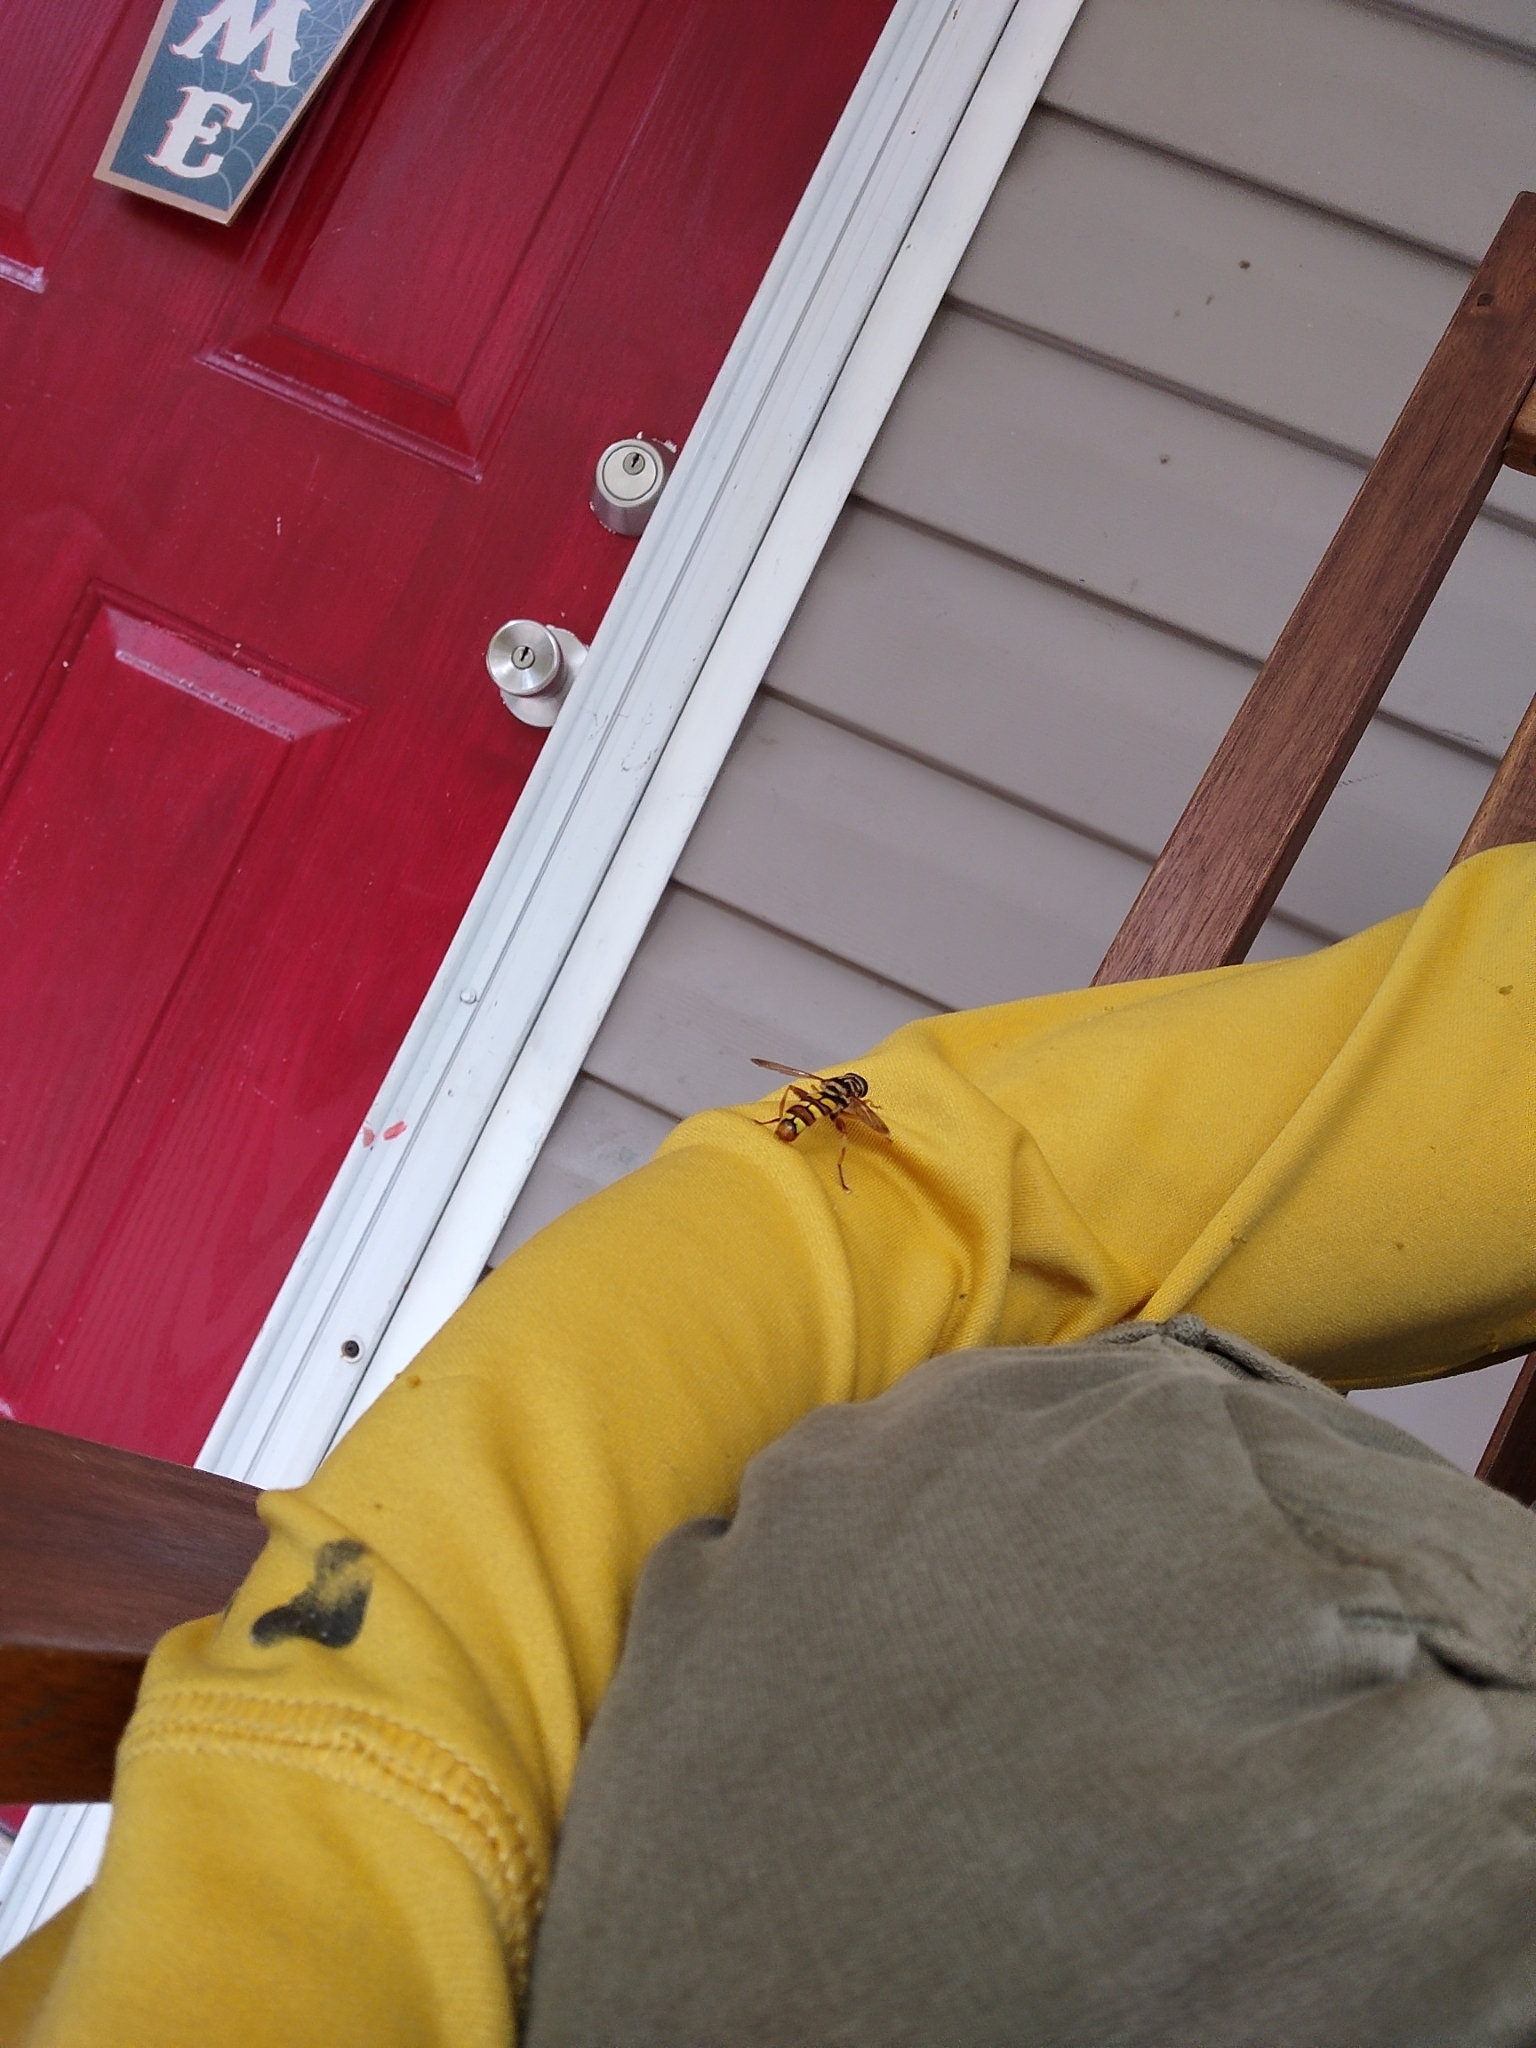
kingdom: Animalia
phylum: Arthropoda
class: Insecta
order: Diptera
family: Syrphidae
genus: Milesia
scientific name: Milesia virginiensis
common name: Virginia giant
